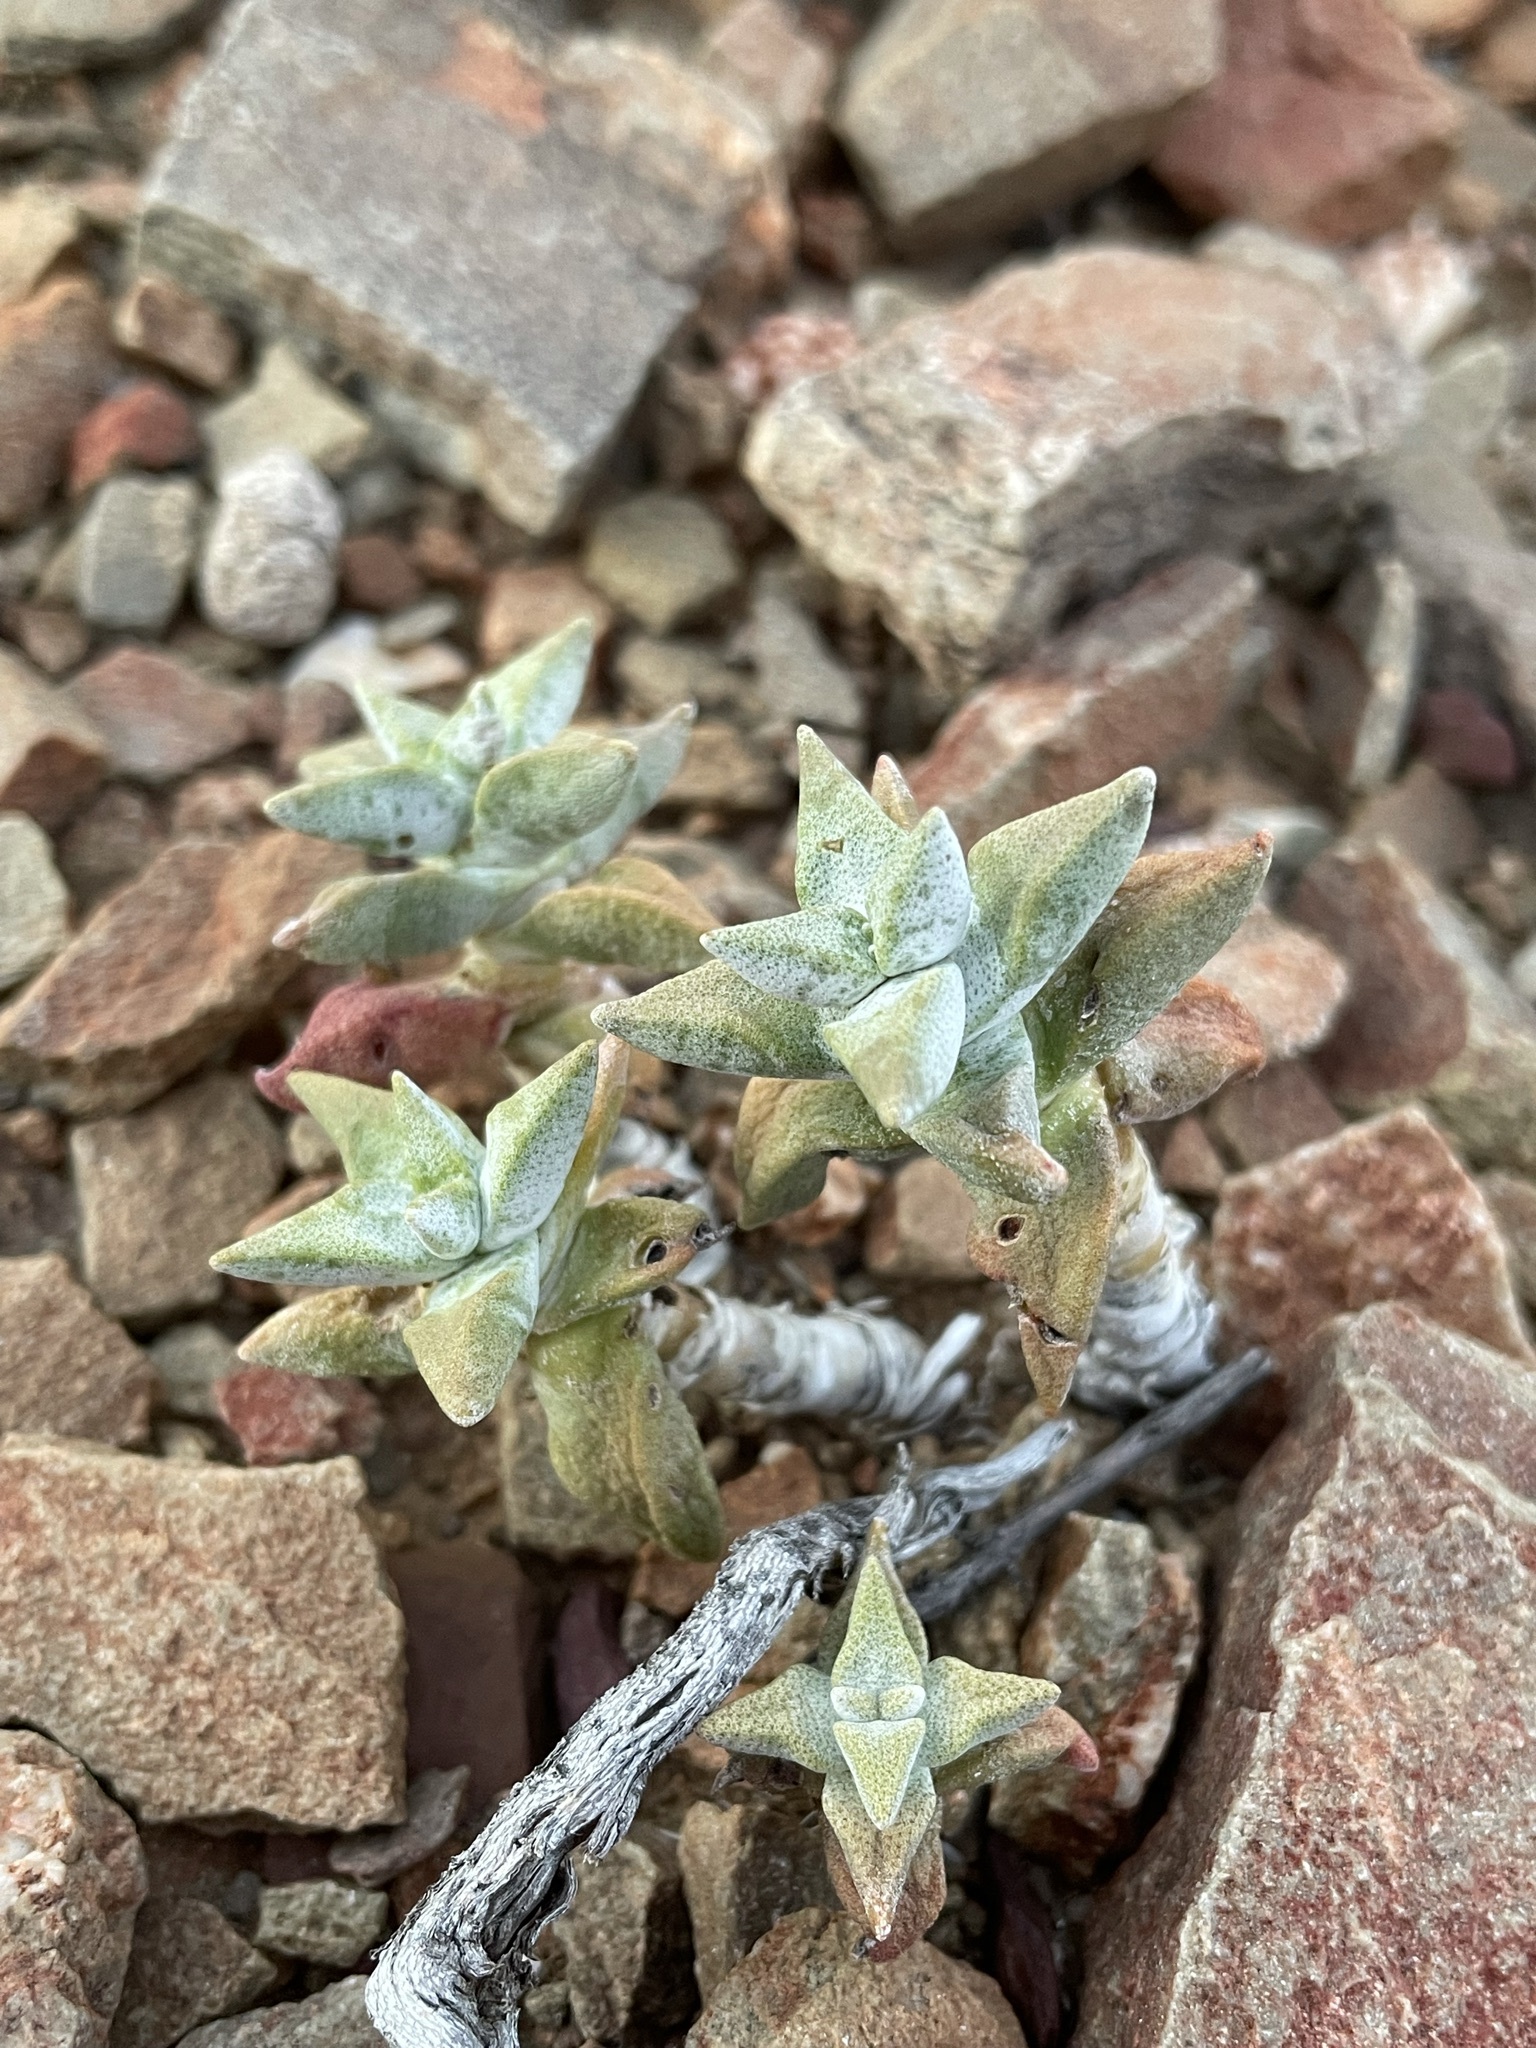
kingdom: Plantae
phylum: Tracheophyta
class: Magnoliopsida
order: Saxifragales
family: Crassulaceae
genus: Crassula
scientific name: Crassula deltoidea
